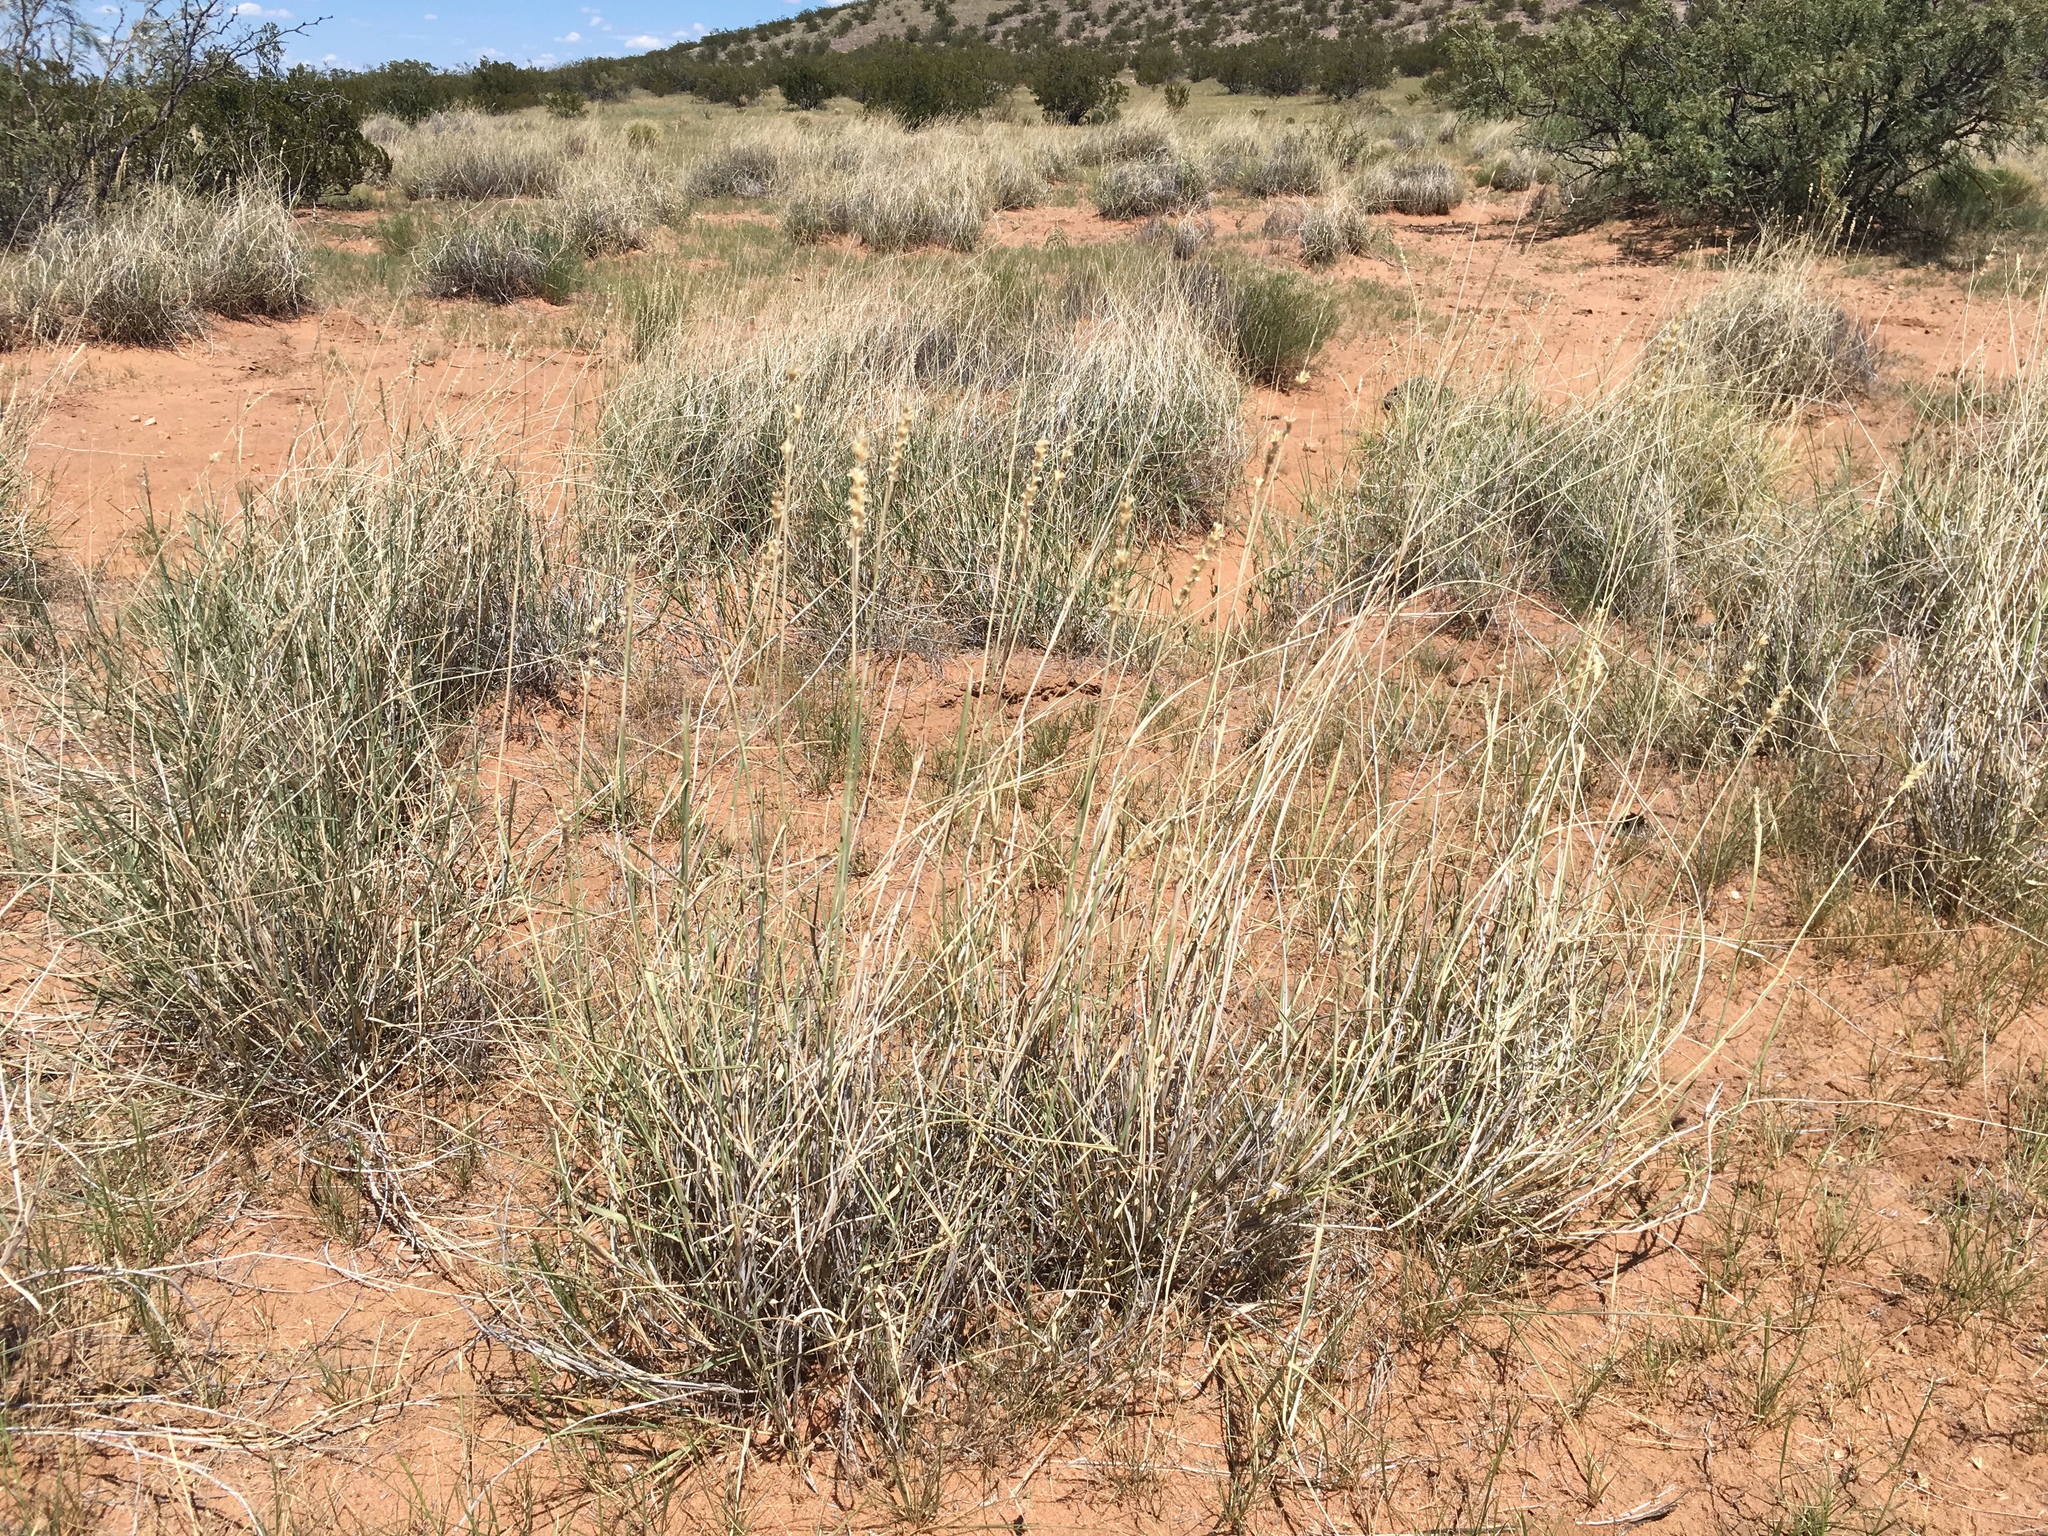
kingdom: Plantae
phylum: Tracheophyta
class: Liliopsida
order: Poales
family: Poaceae
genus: Hilaria
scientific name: Hilaria mutica
